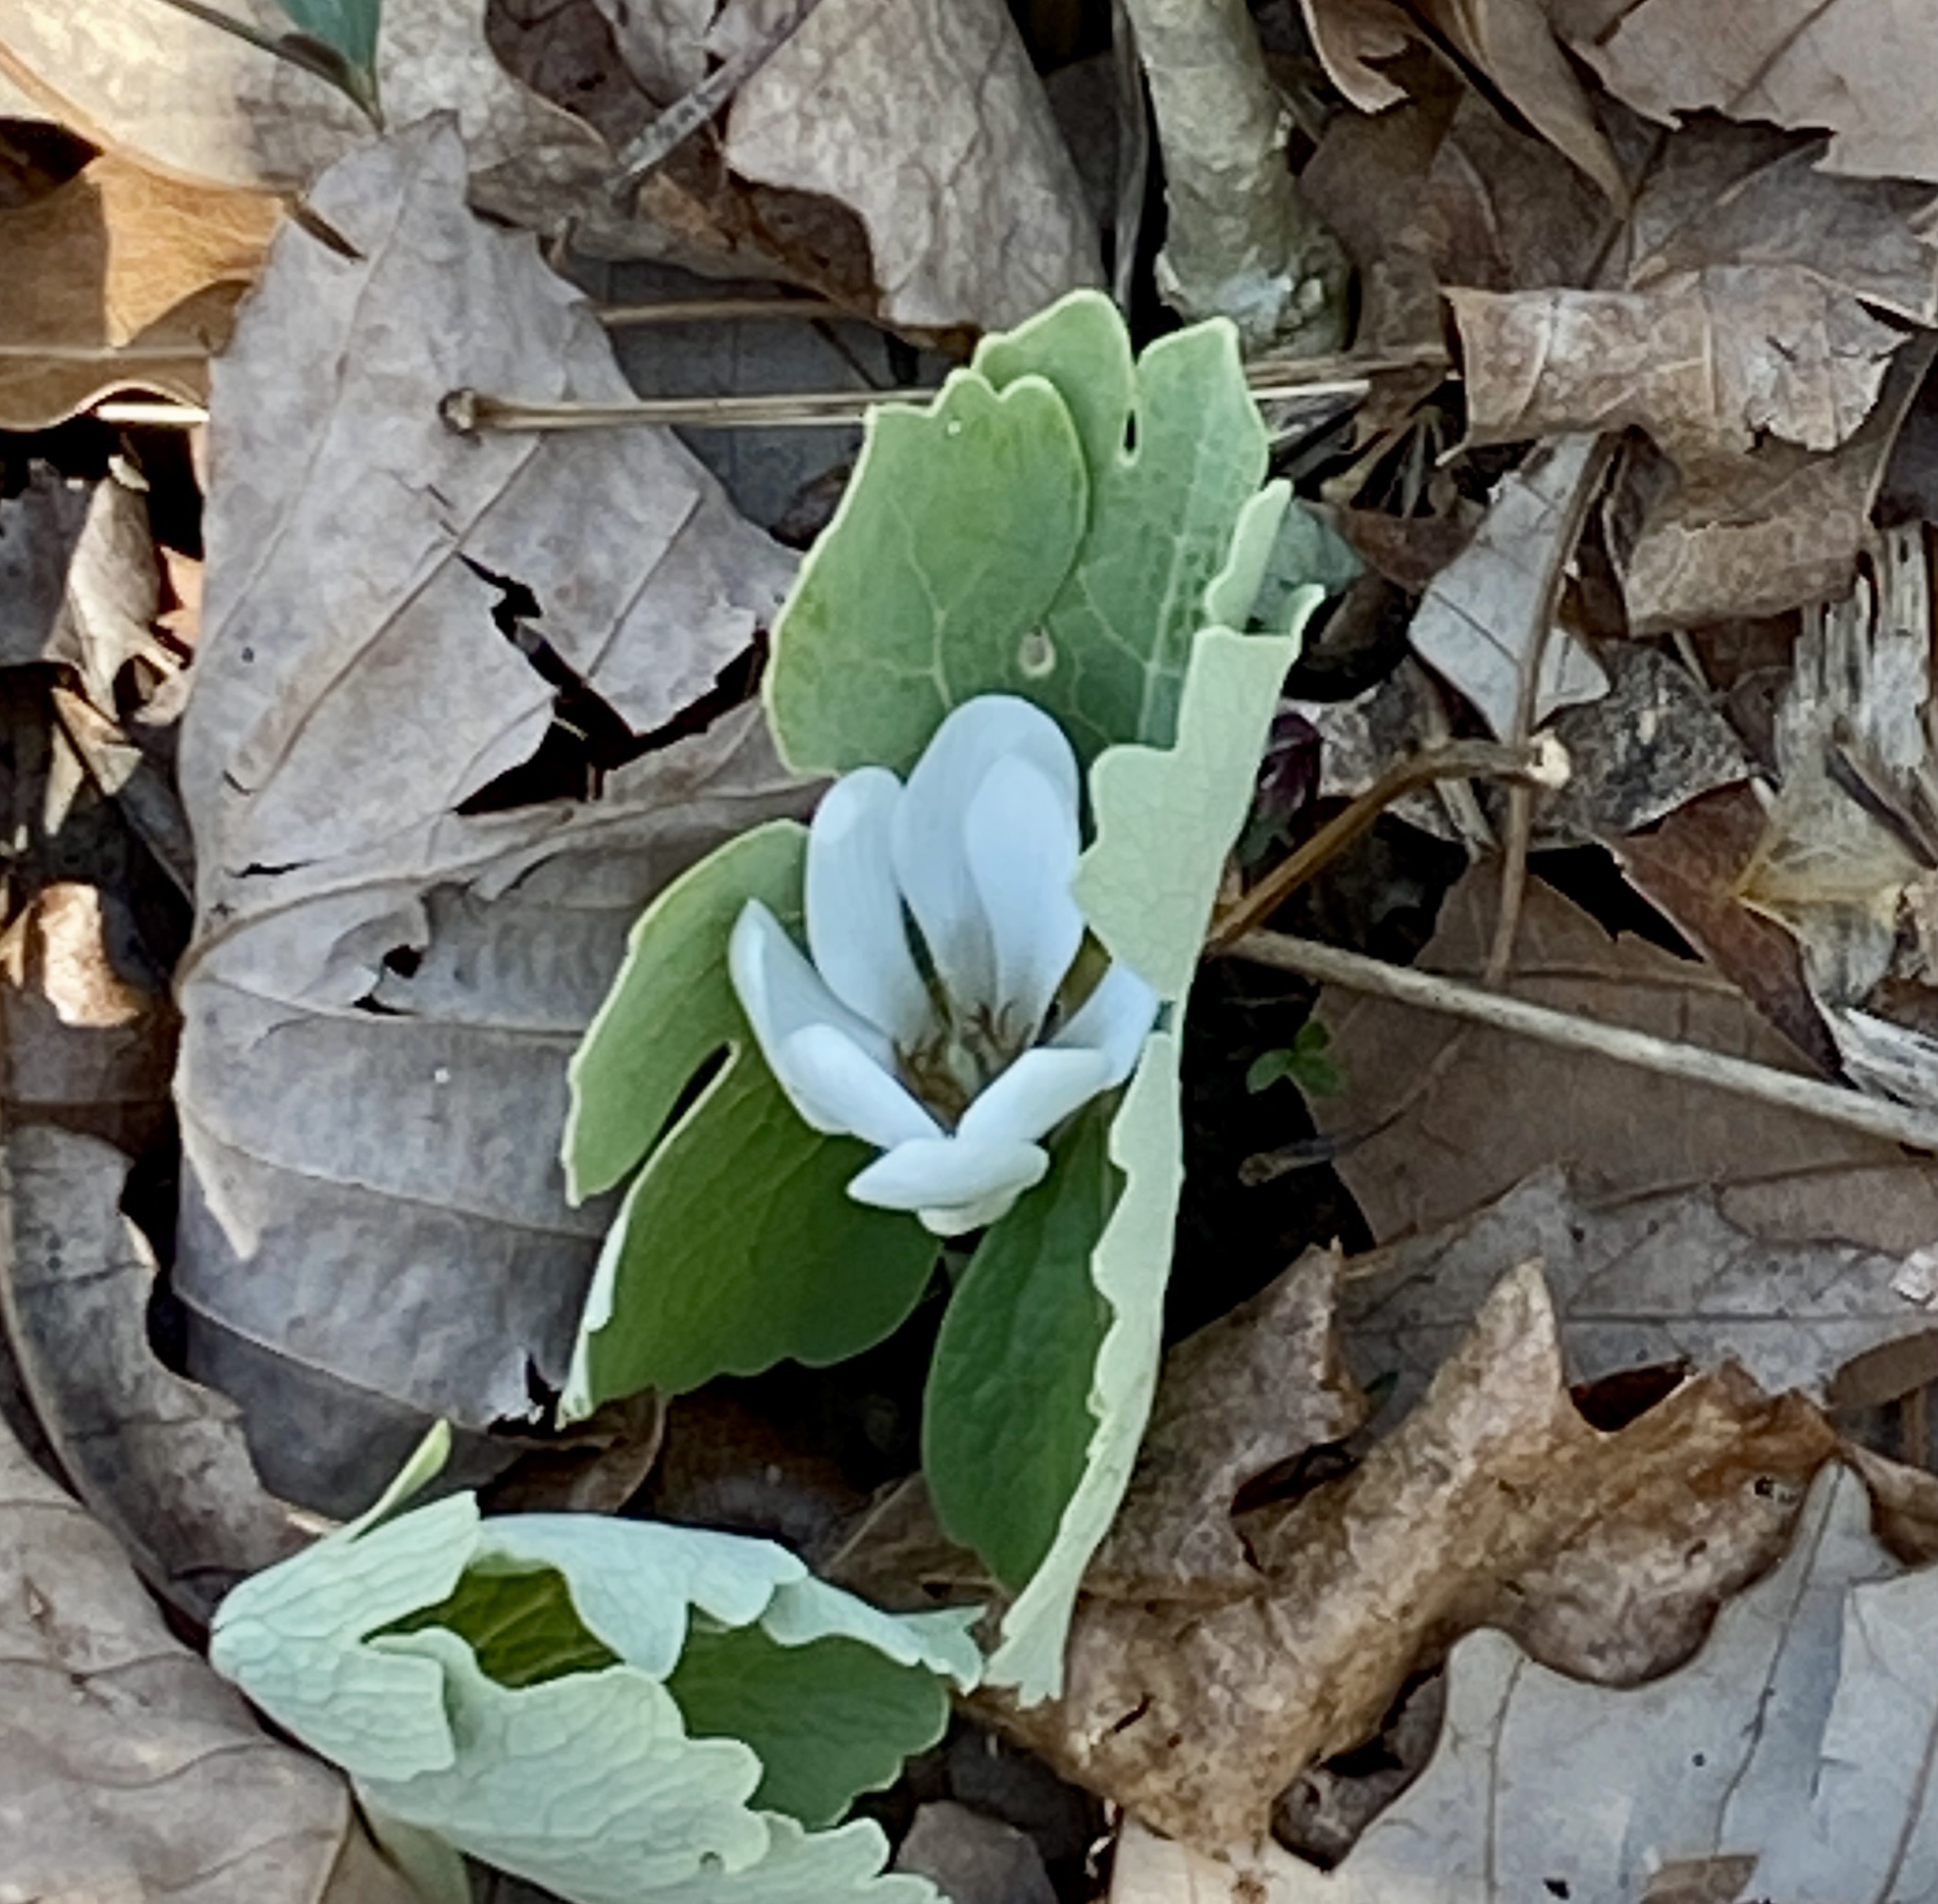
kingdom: Plantae
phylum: Tracheophyta
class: Magnoliopsida
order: Ranunculales
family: Papaveraceae
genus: Sanguinaria
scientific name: Sanguinaria canadensis
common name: Bloodroot
